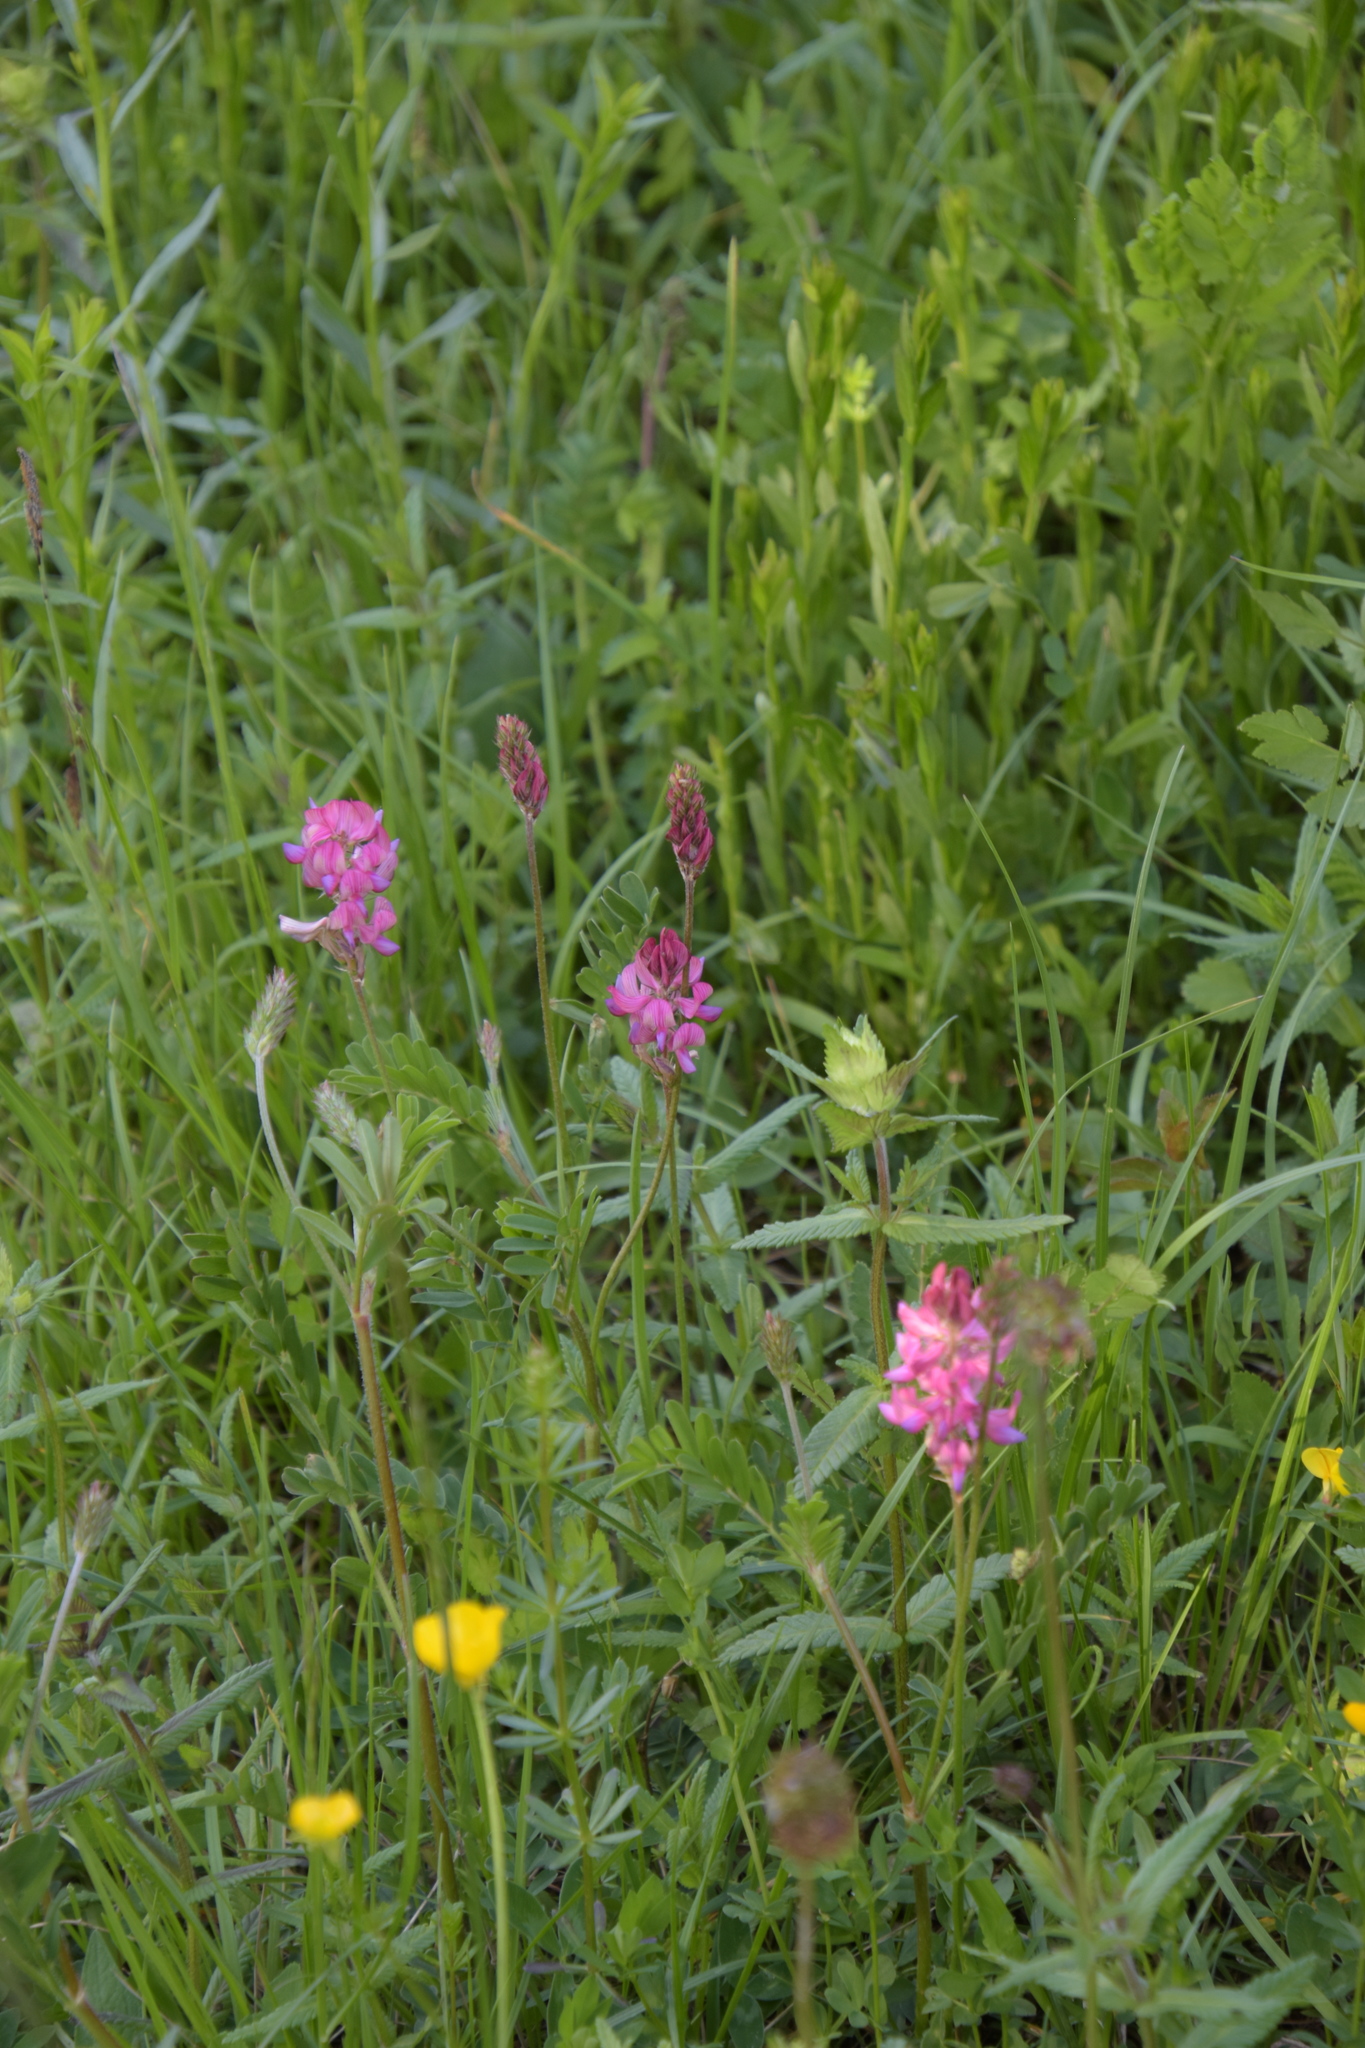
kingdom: Plantae
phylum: Tracheophyta
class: Magnoliopsida
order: Fabales
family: Fabaceae
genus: Onobrychis
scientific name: Onobrychis viciifolia
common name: Sainfoin
